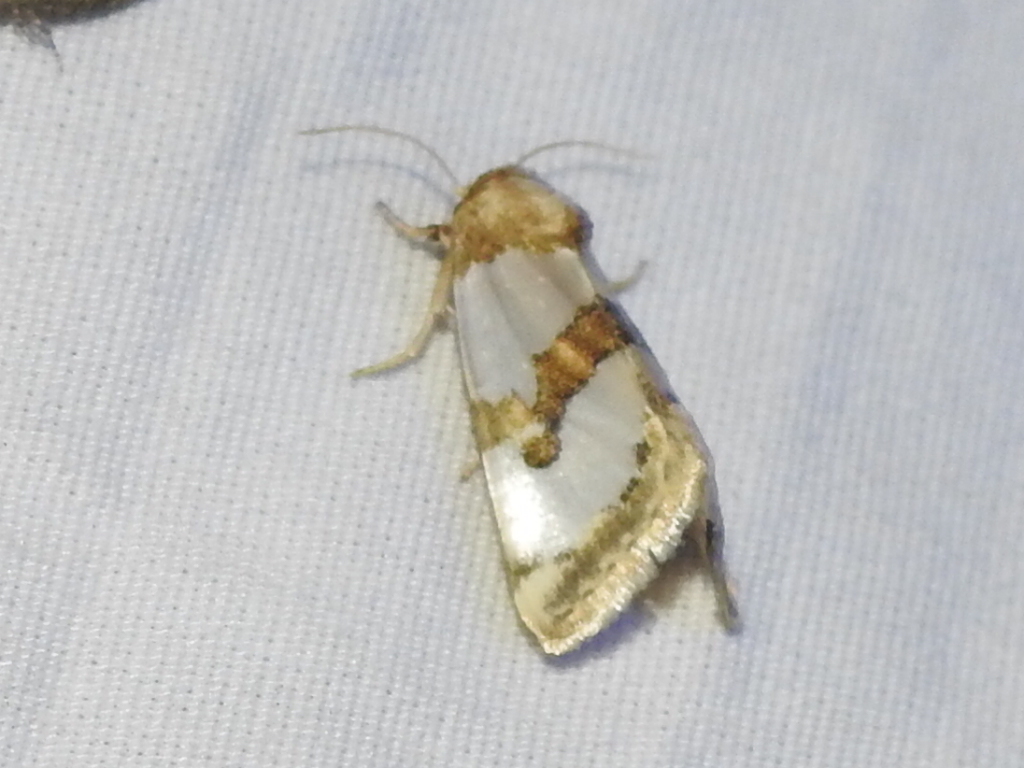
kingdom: Animalia
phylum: Arthropoda
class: Insecta
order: Lepidoptera
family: Noctuidae
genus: Schinia
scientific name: Schinia chrysellus
